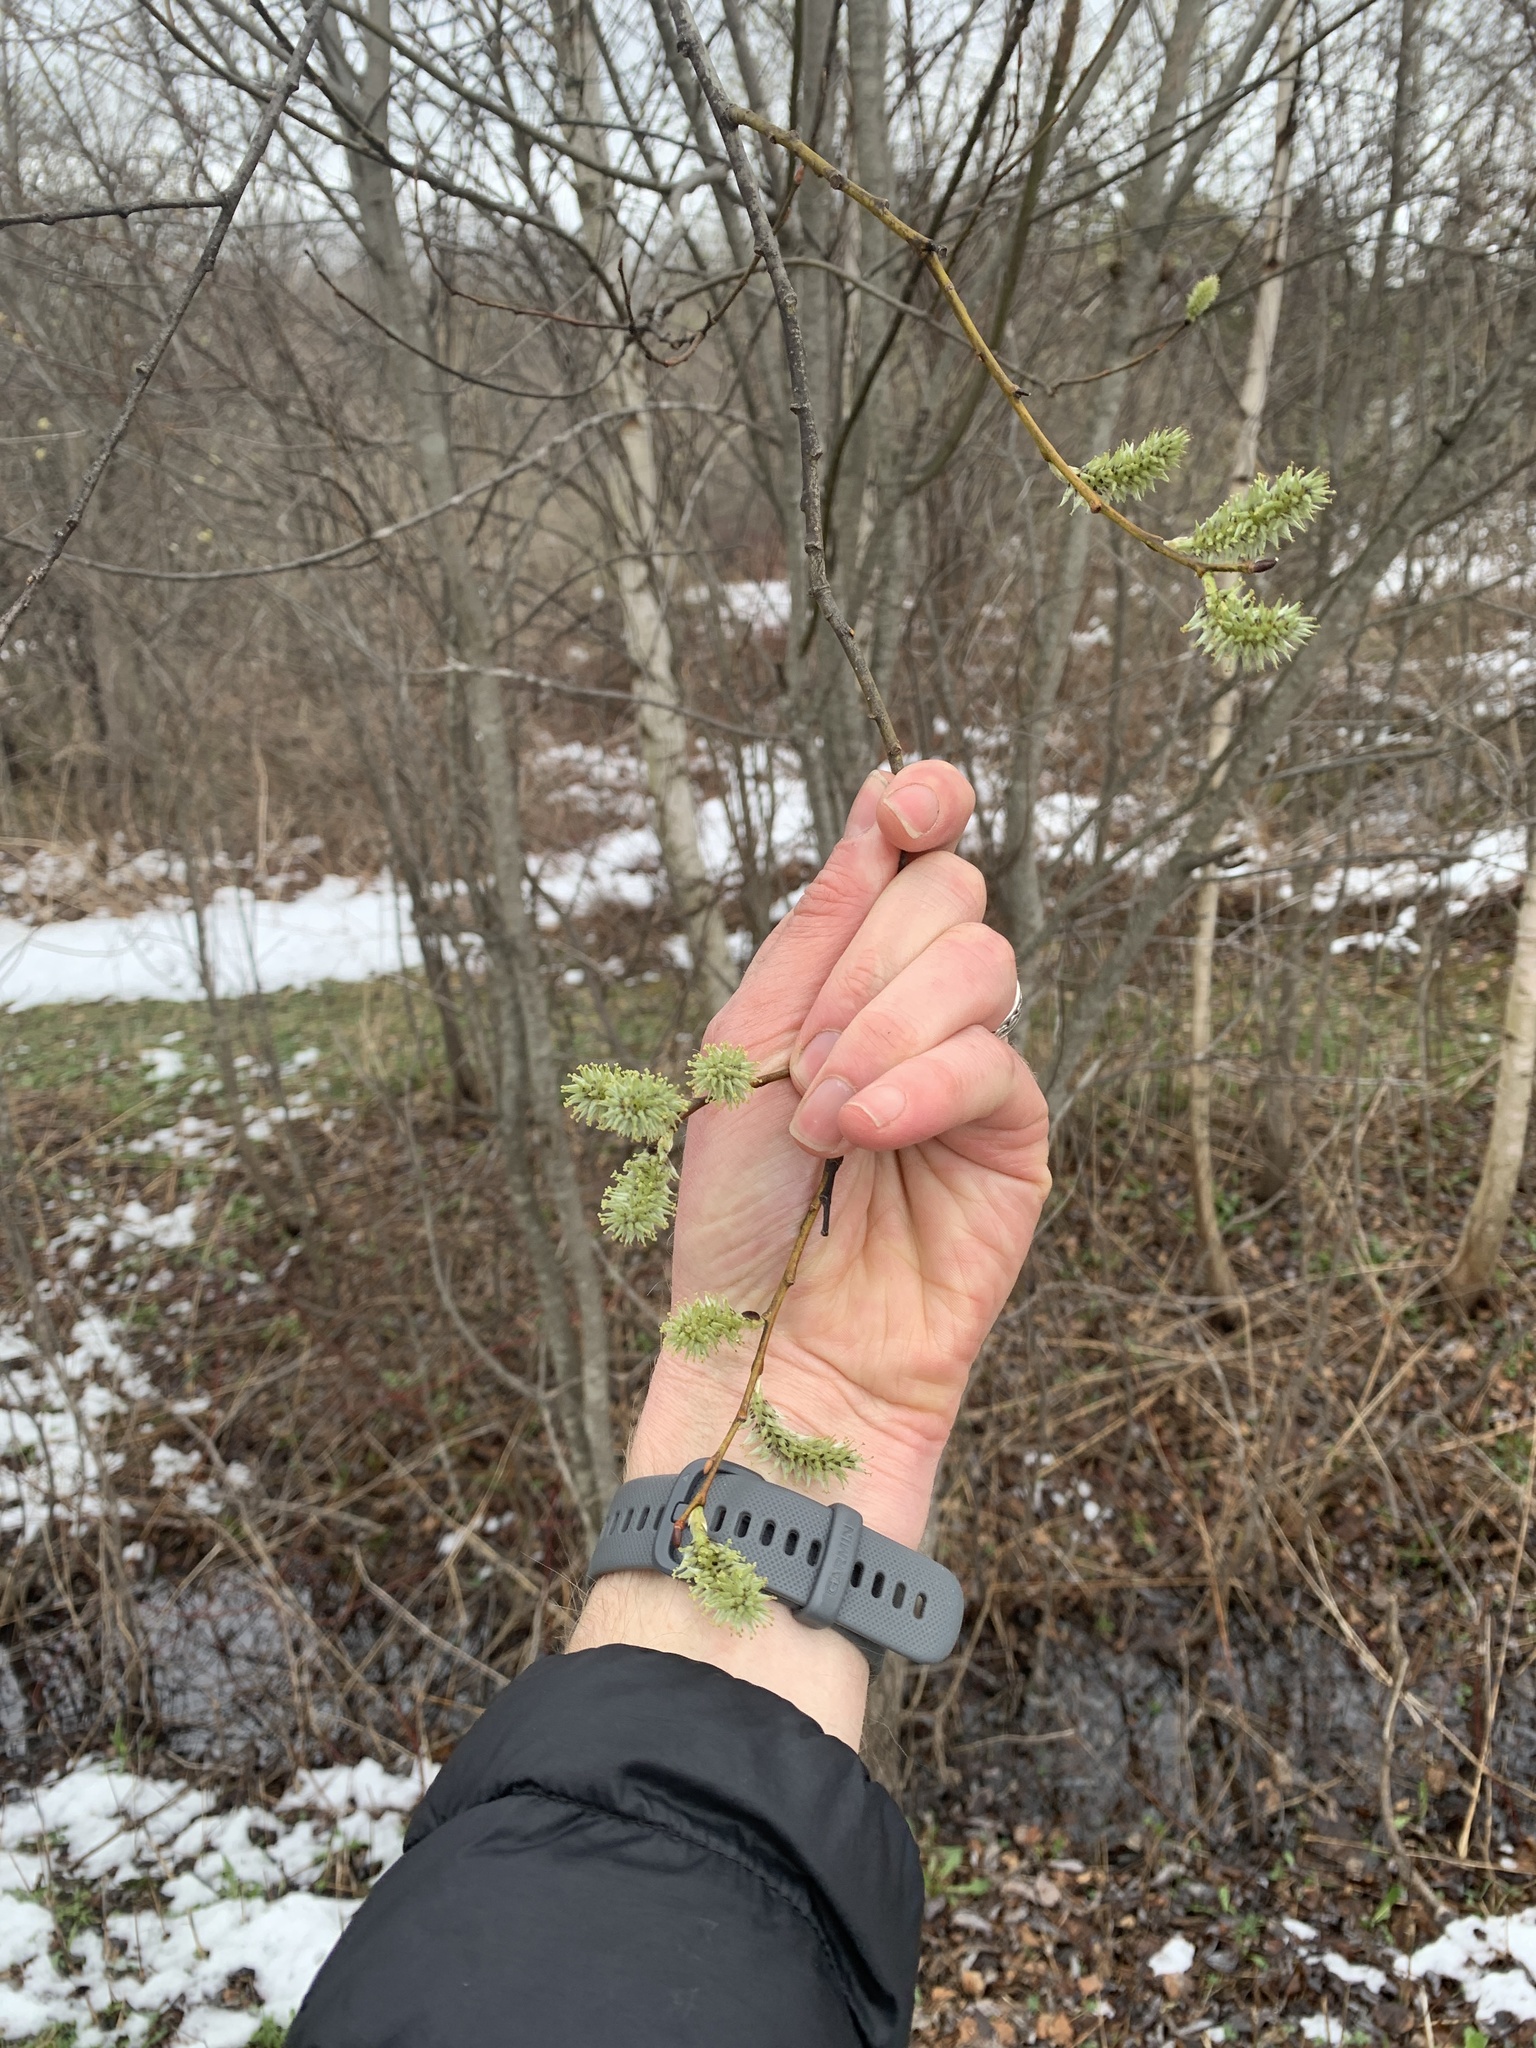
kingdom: Plantae
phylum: Tracheophyta
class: Magnoliopsida
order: Malpighiales
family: Salicaceae
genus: Salix
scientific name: Salix discolor
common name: Glaucous willow
